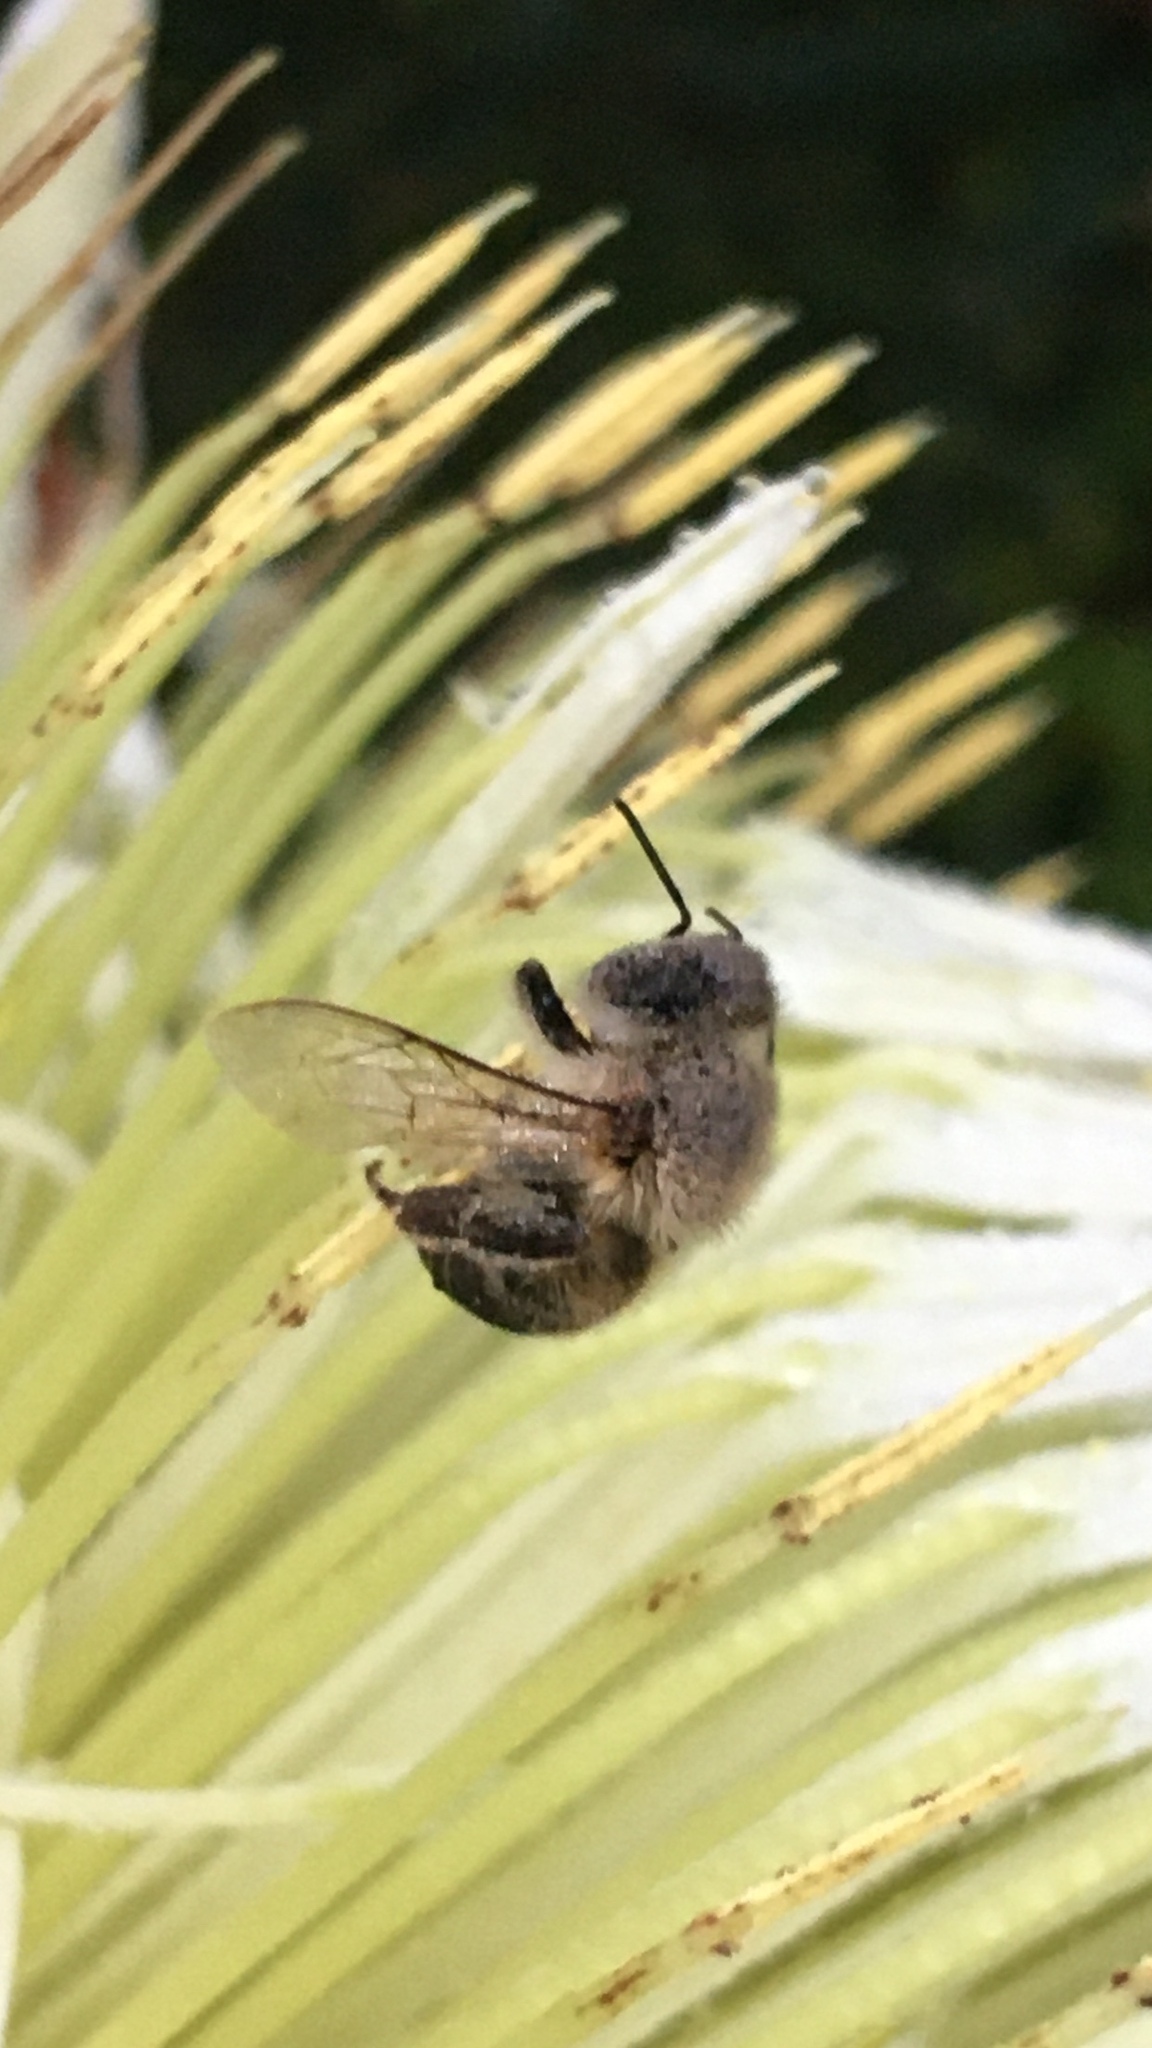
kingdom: Animalia
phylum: Arthropoda
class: Insecta
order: Hymenoptera
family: Apidae
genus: Apis
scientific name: Apis mellifera
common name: Honey bee
